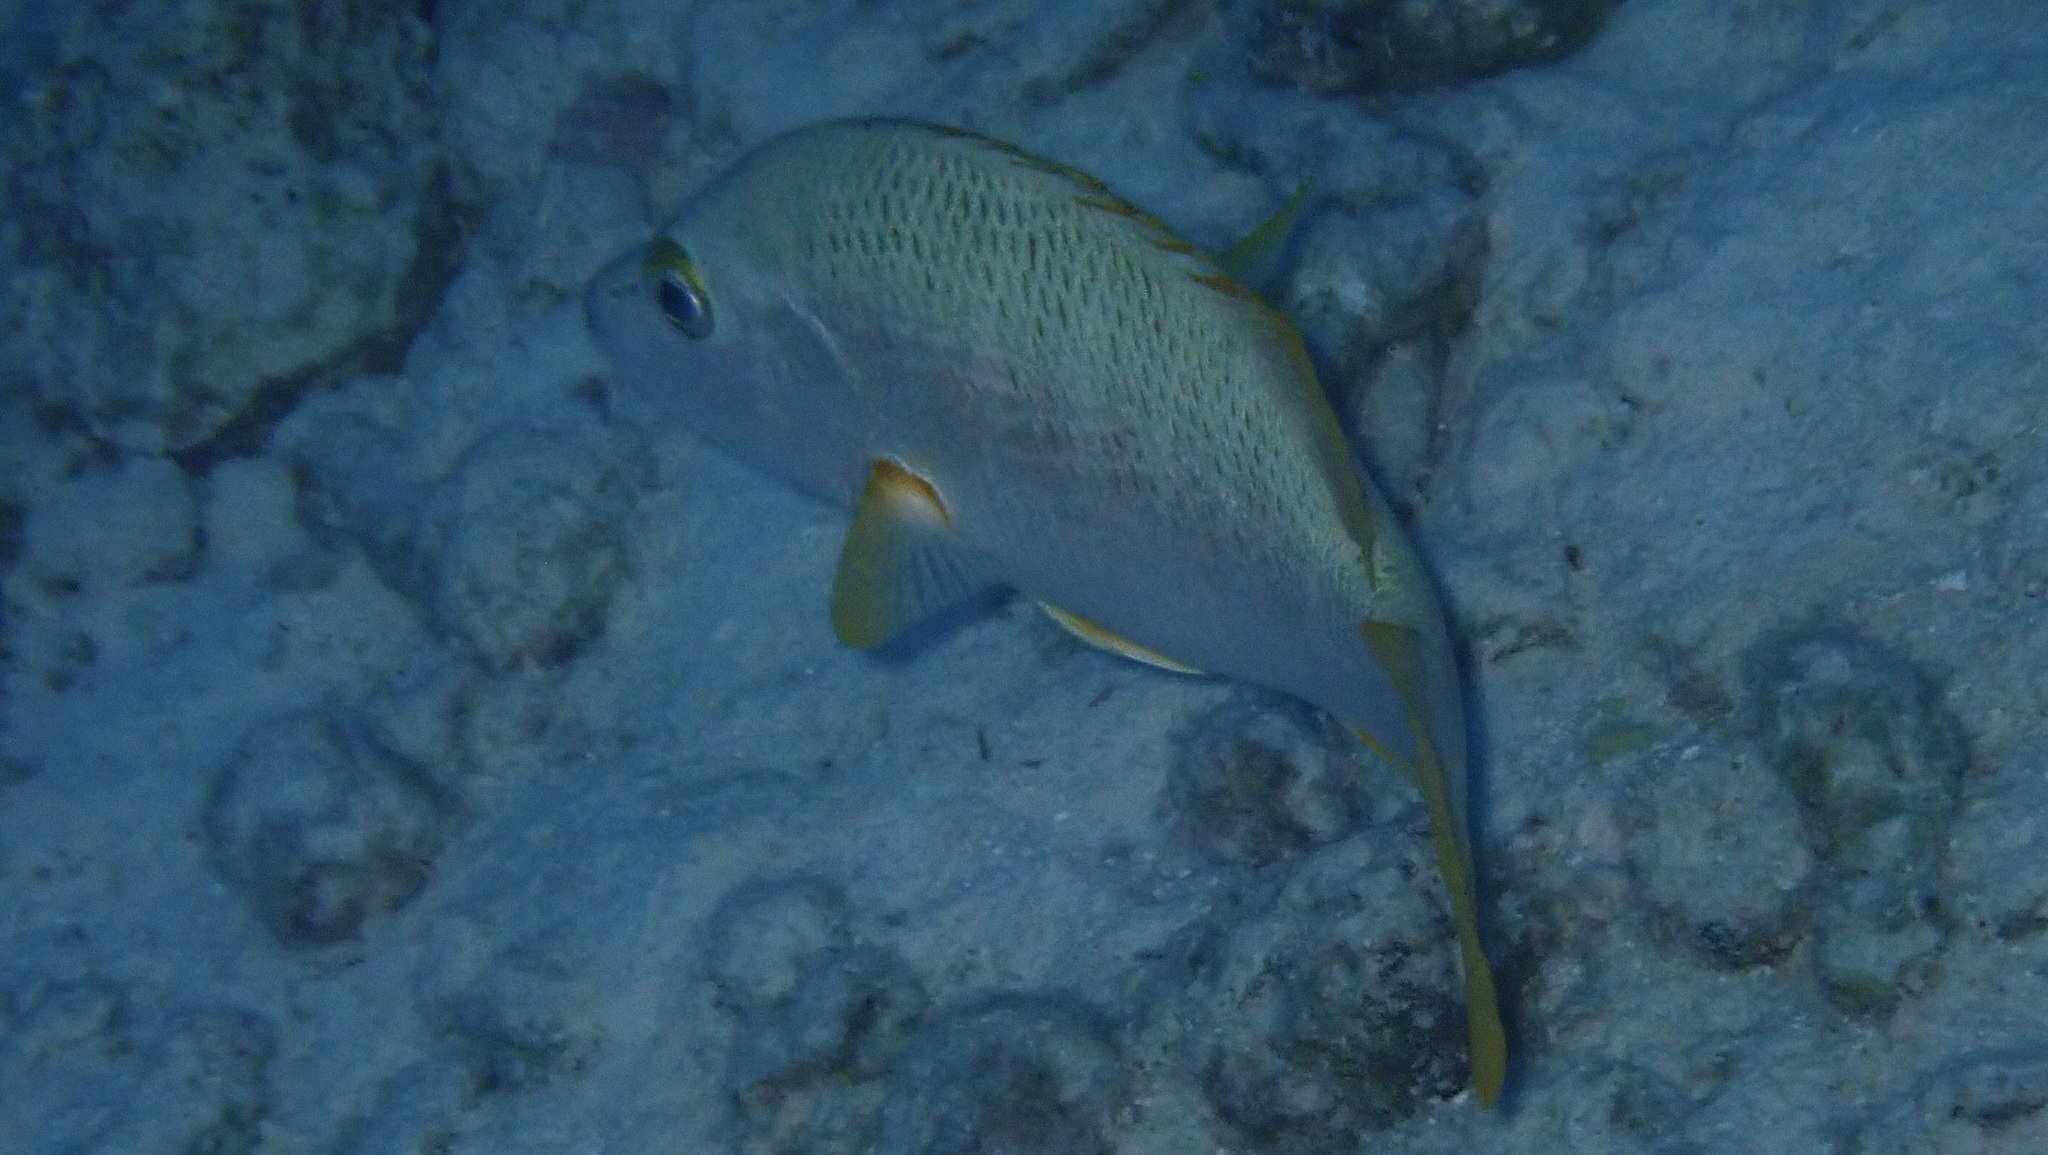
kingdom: Animalia
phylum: Chordata
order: Perciformes
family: Lutjanidae
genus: Lutjanus
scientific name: Lutjanus apodus
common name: Schoolmaster
